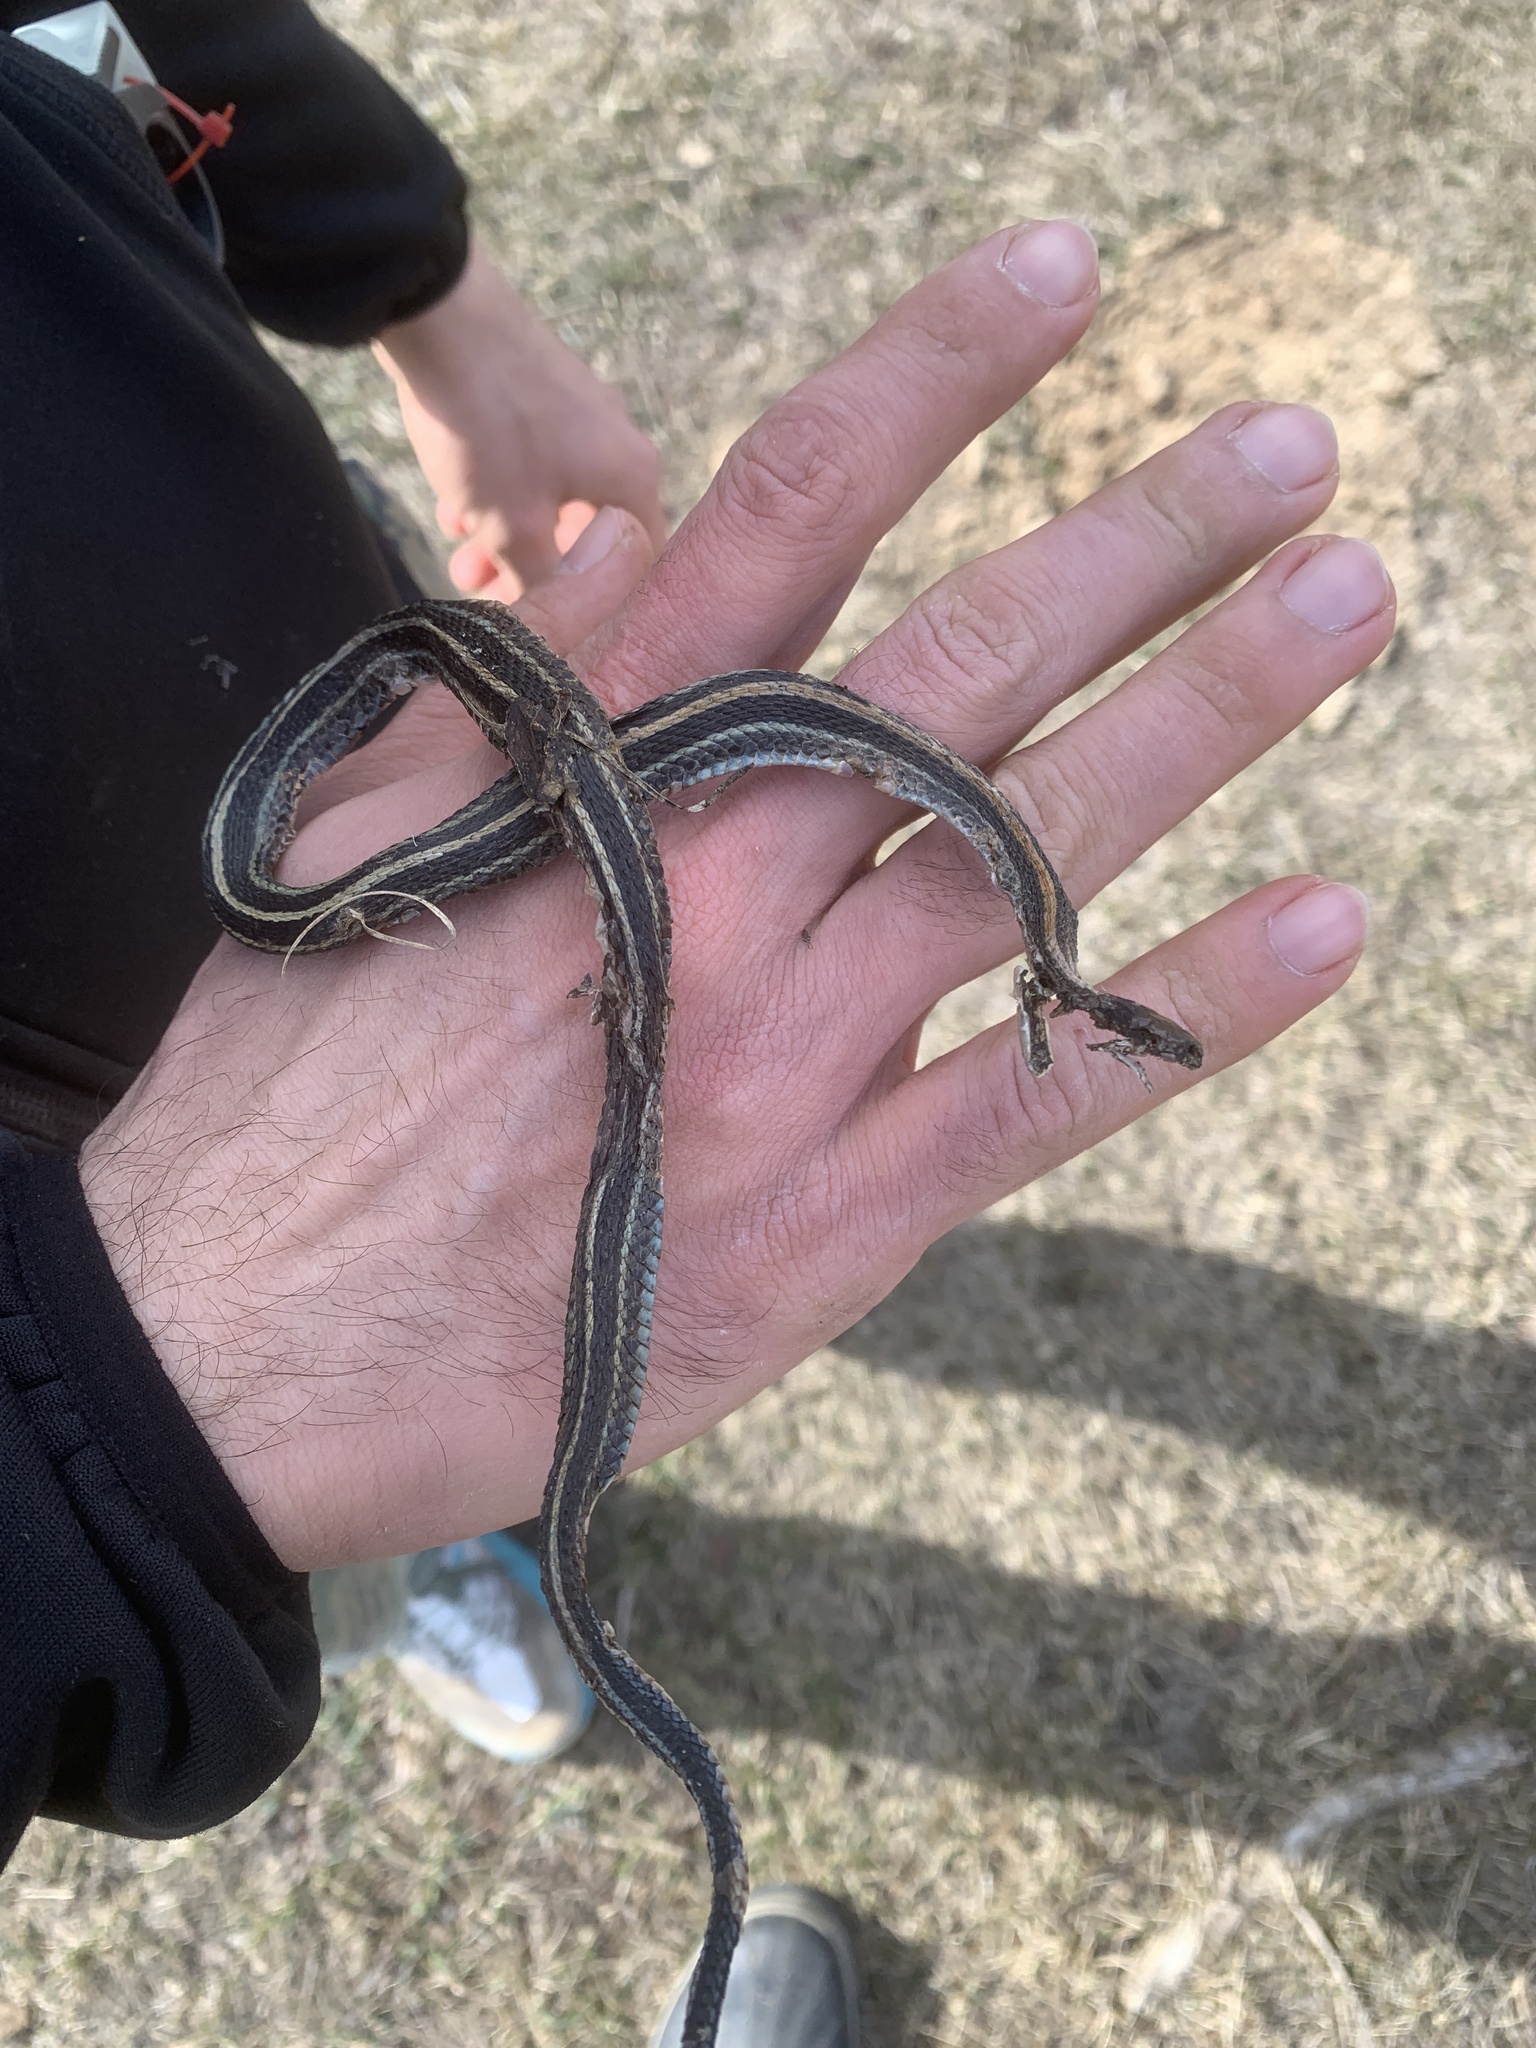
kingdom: Animalia
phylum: Chordata
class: Squamata
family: Colubridae
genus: Thamnophis
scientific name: Thamnophis radix
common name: Plains garter snake
